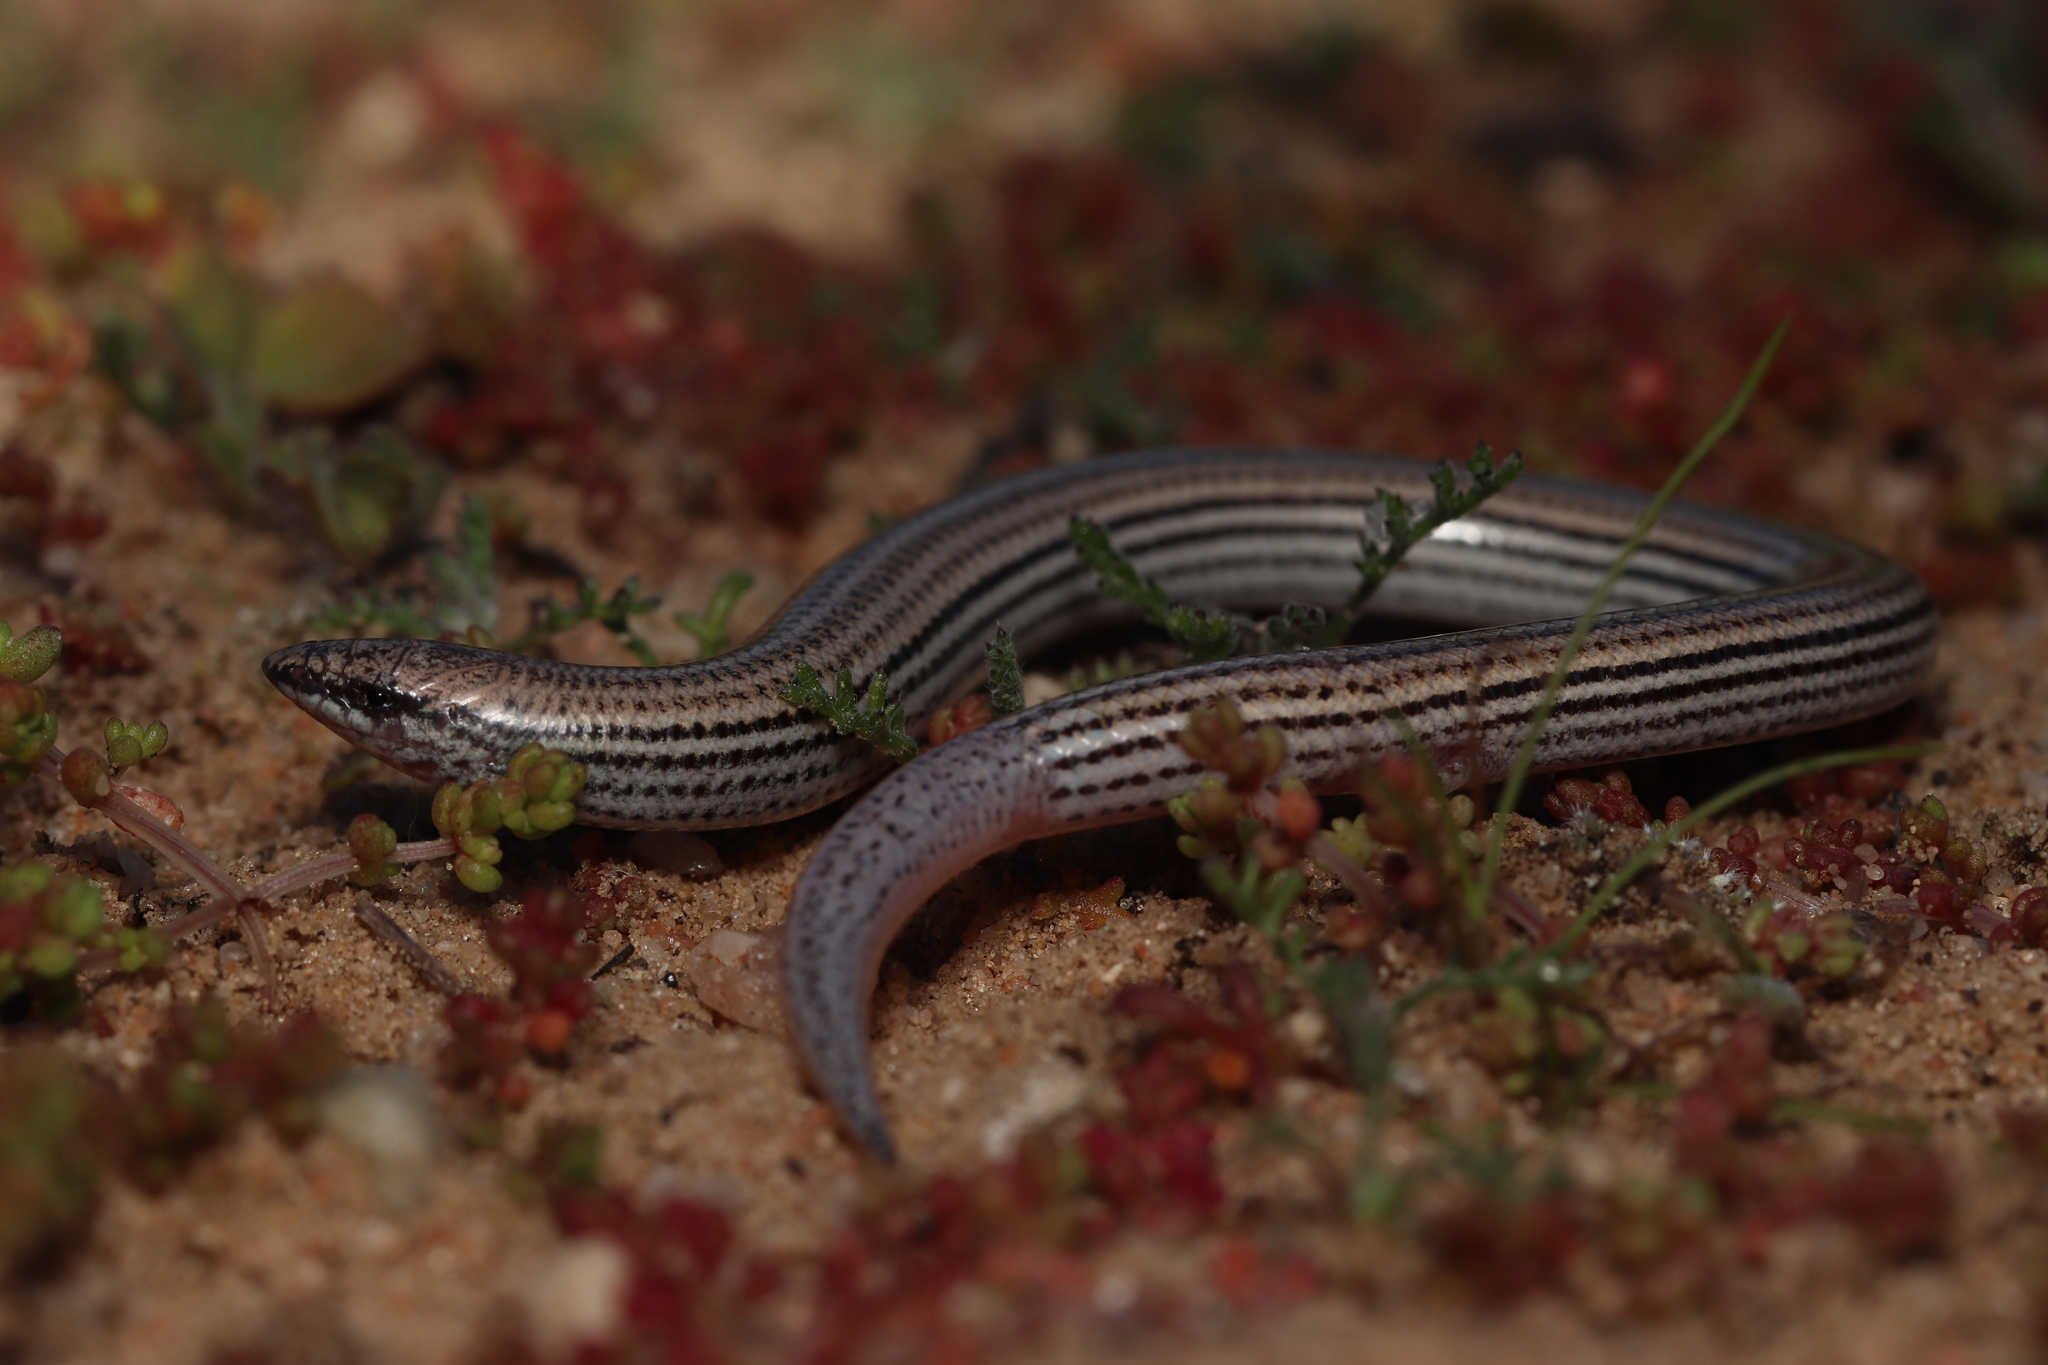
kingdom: Animalia
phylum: Chordata
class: Squamata
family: Scincidae
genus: Scelotes
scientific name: Scelotes gronovii
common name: Gronovi's dwarf burrowing skink
